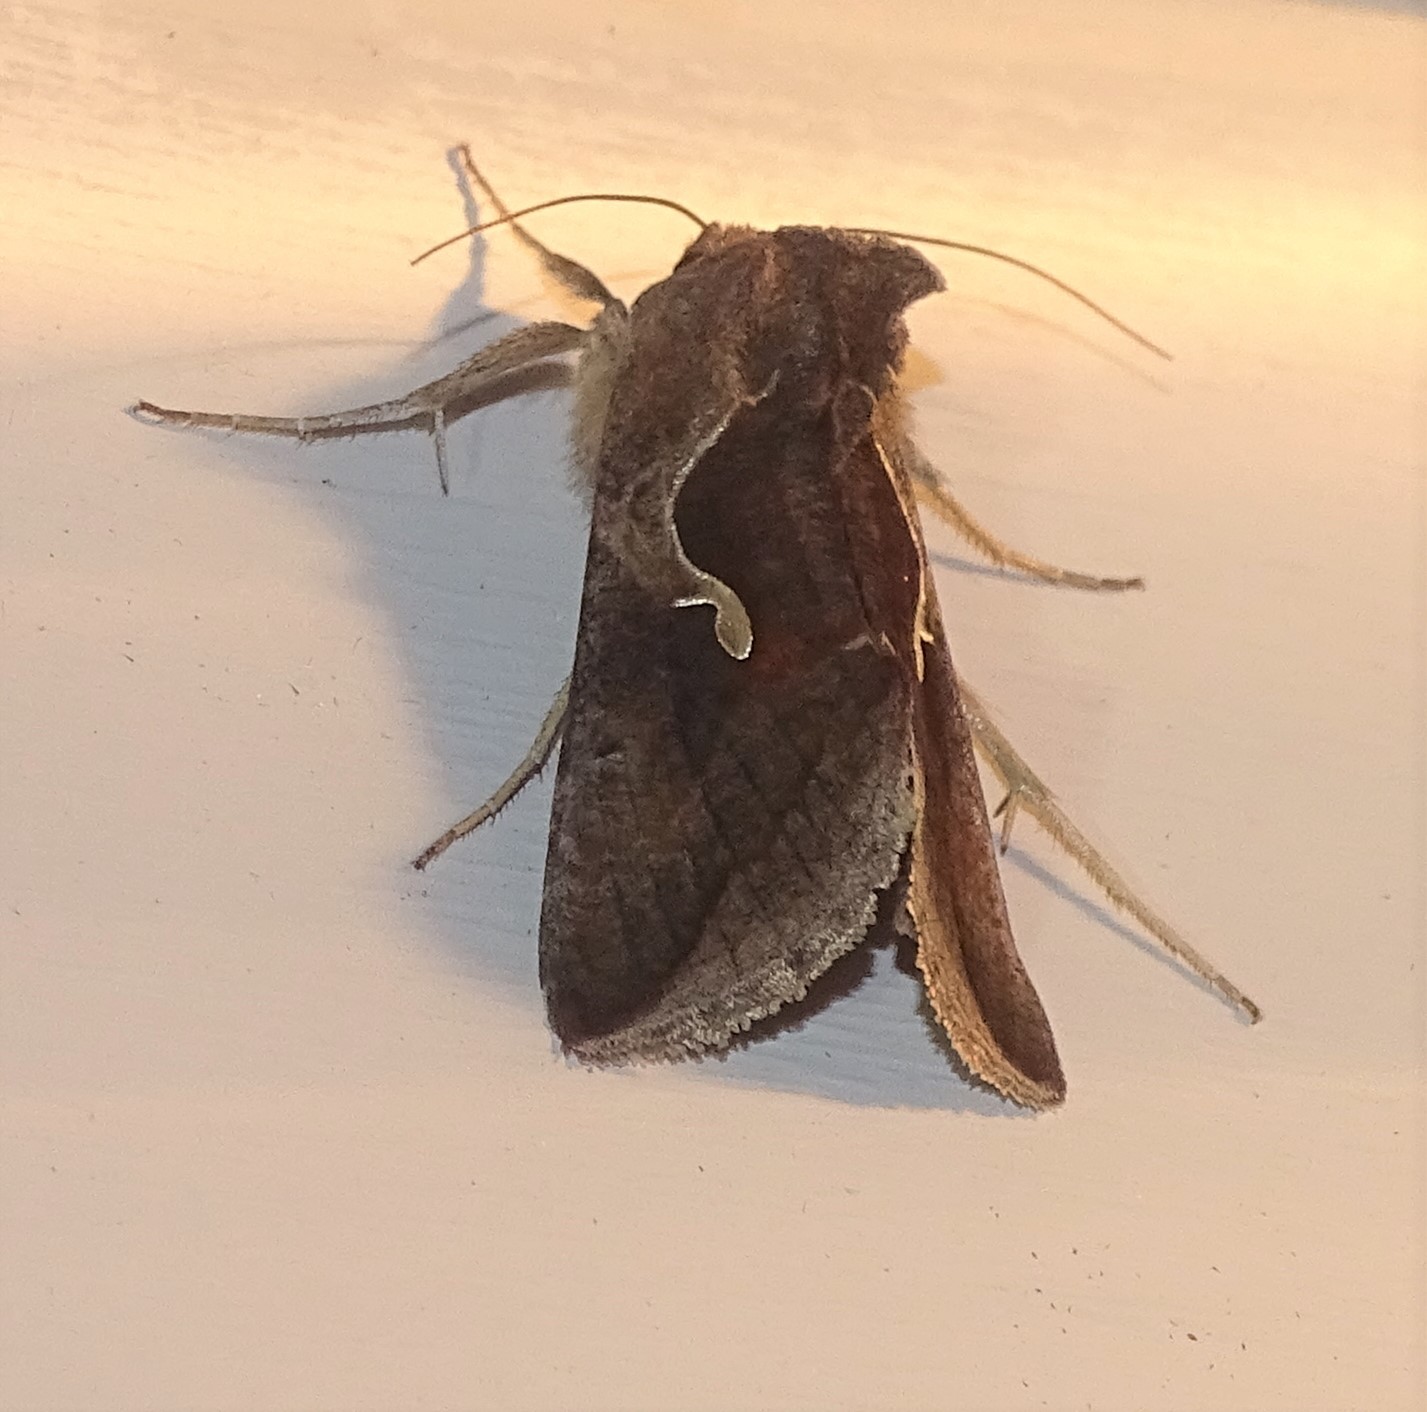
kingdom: Animalia
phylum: Arthropoda
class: Insecta
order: Lepidoptera
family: Noctuidae
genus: Anagrapha
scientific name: Anagrapha falcifera
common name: Celery looper
